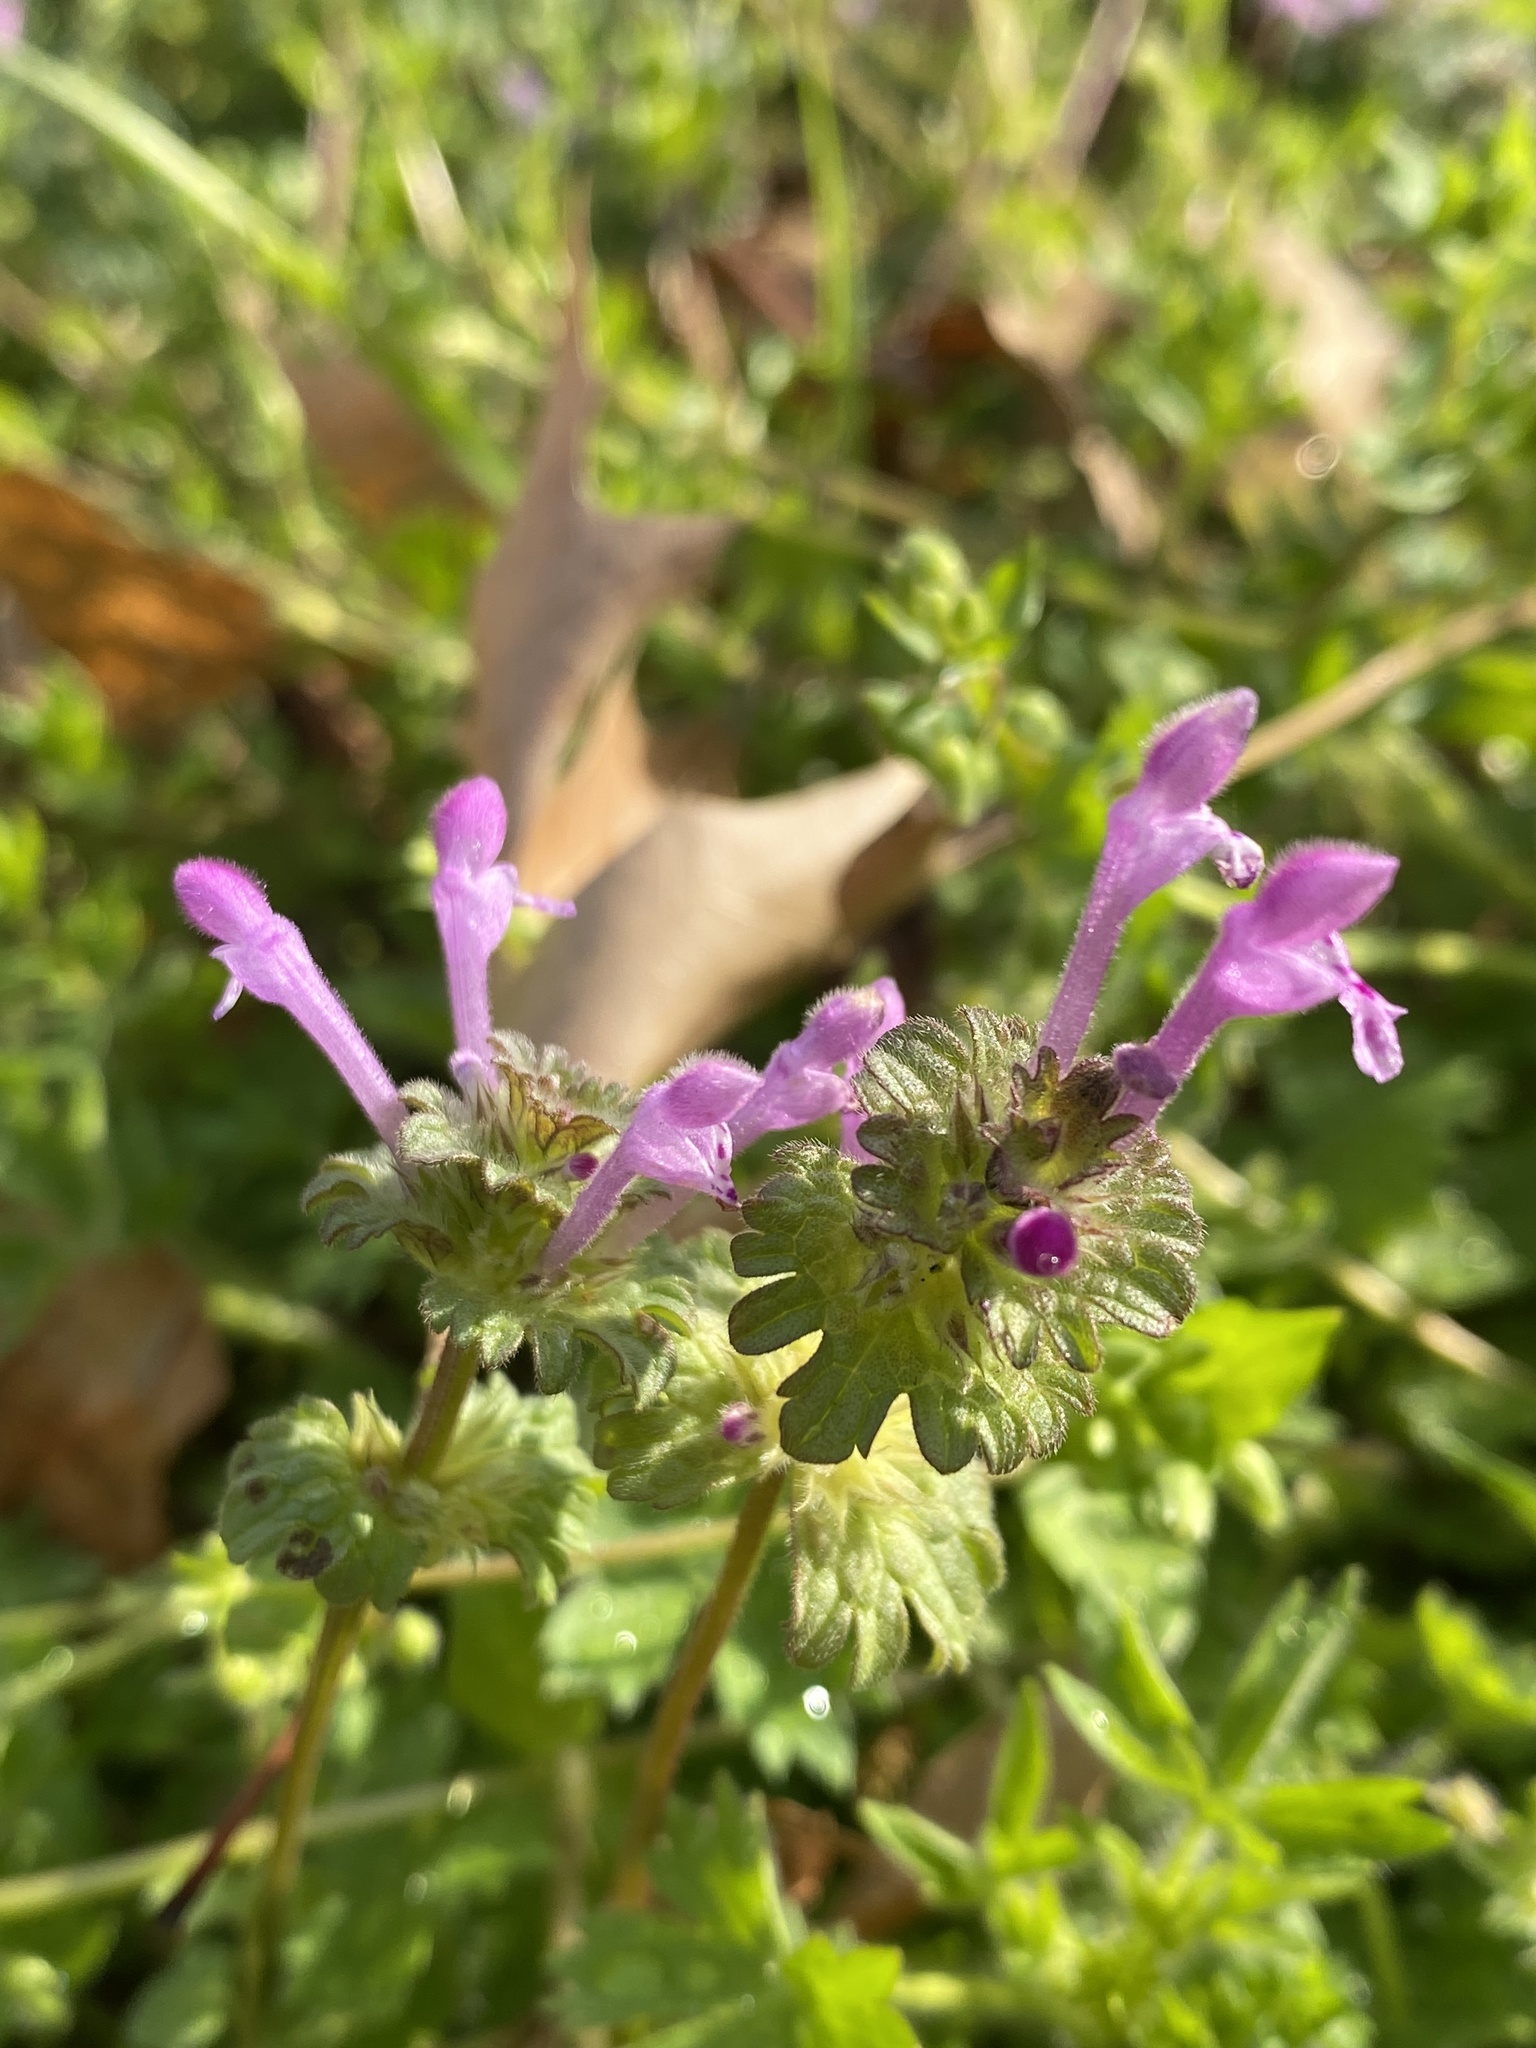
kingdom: Plantae
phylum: Tracheophyta
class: Magnoliopsida
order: Lamiales
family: Lamiaceae
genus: Lamium
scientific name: Lamium amplexicaule
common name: Henbit dead-nettle
